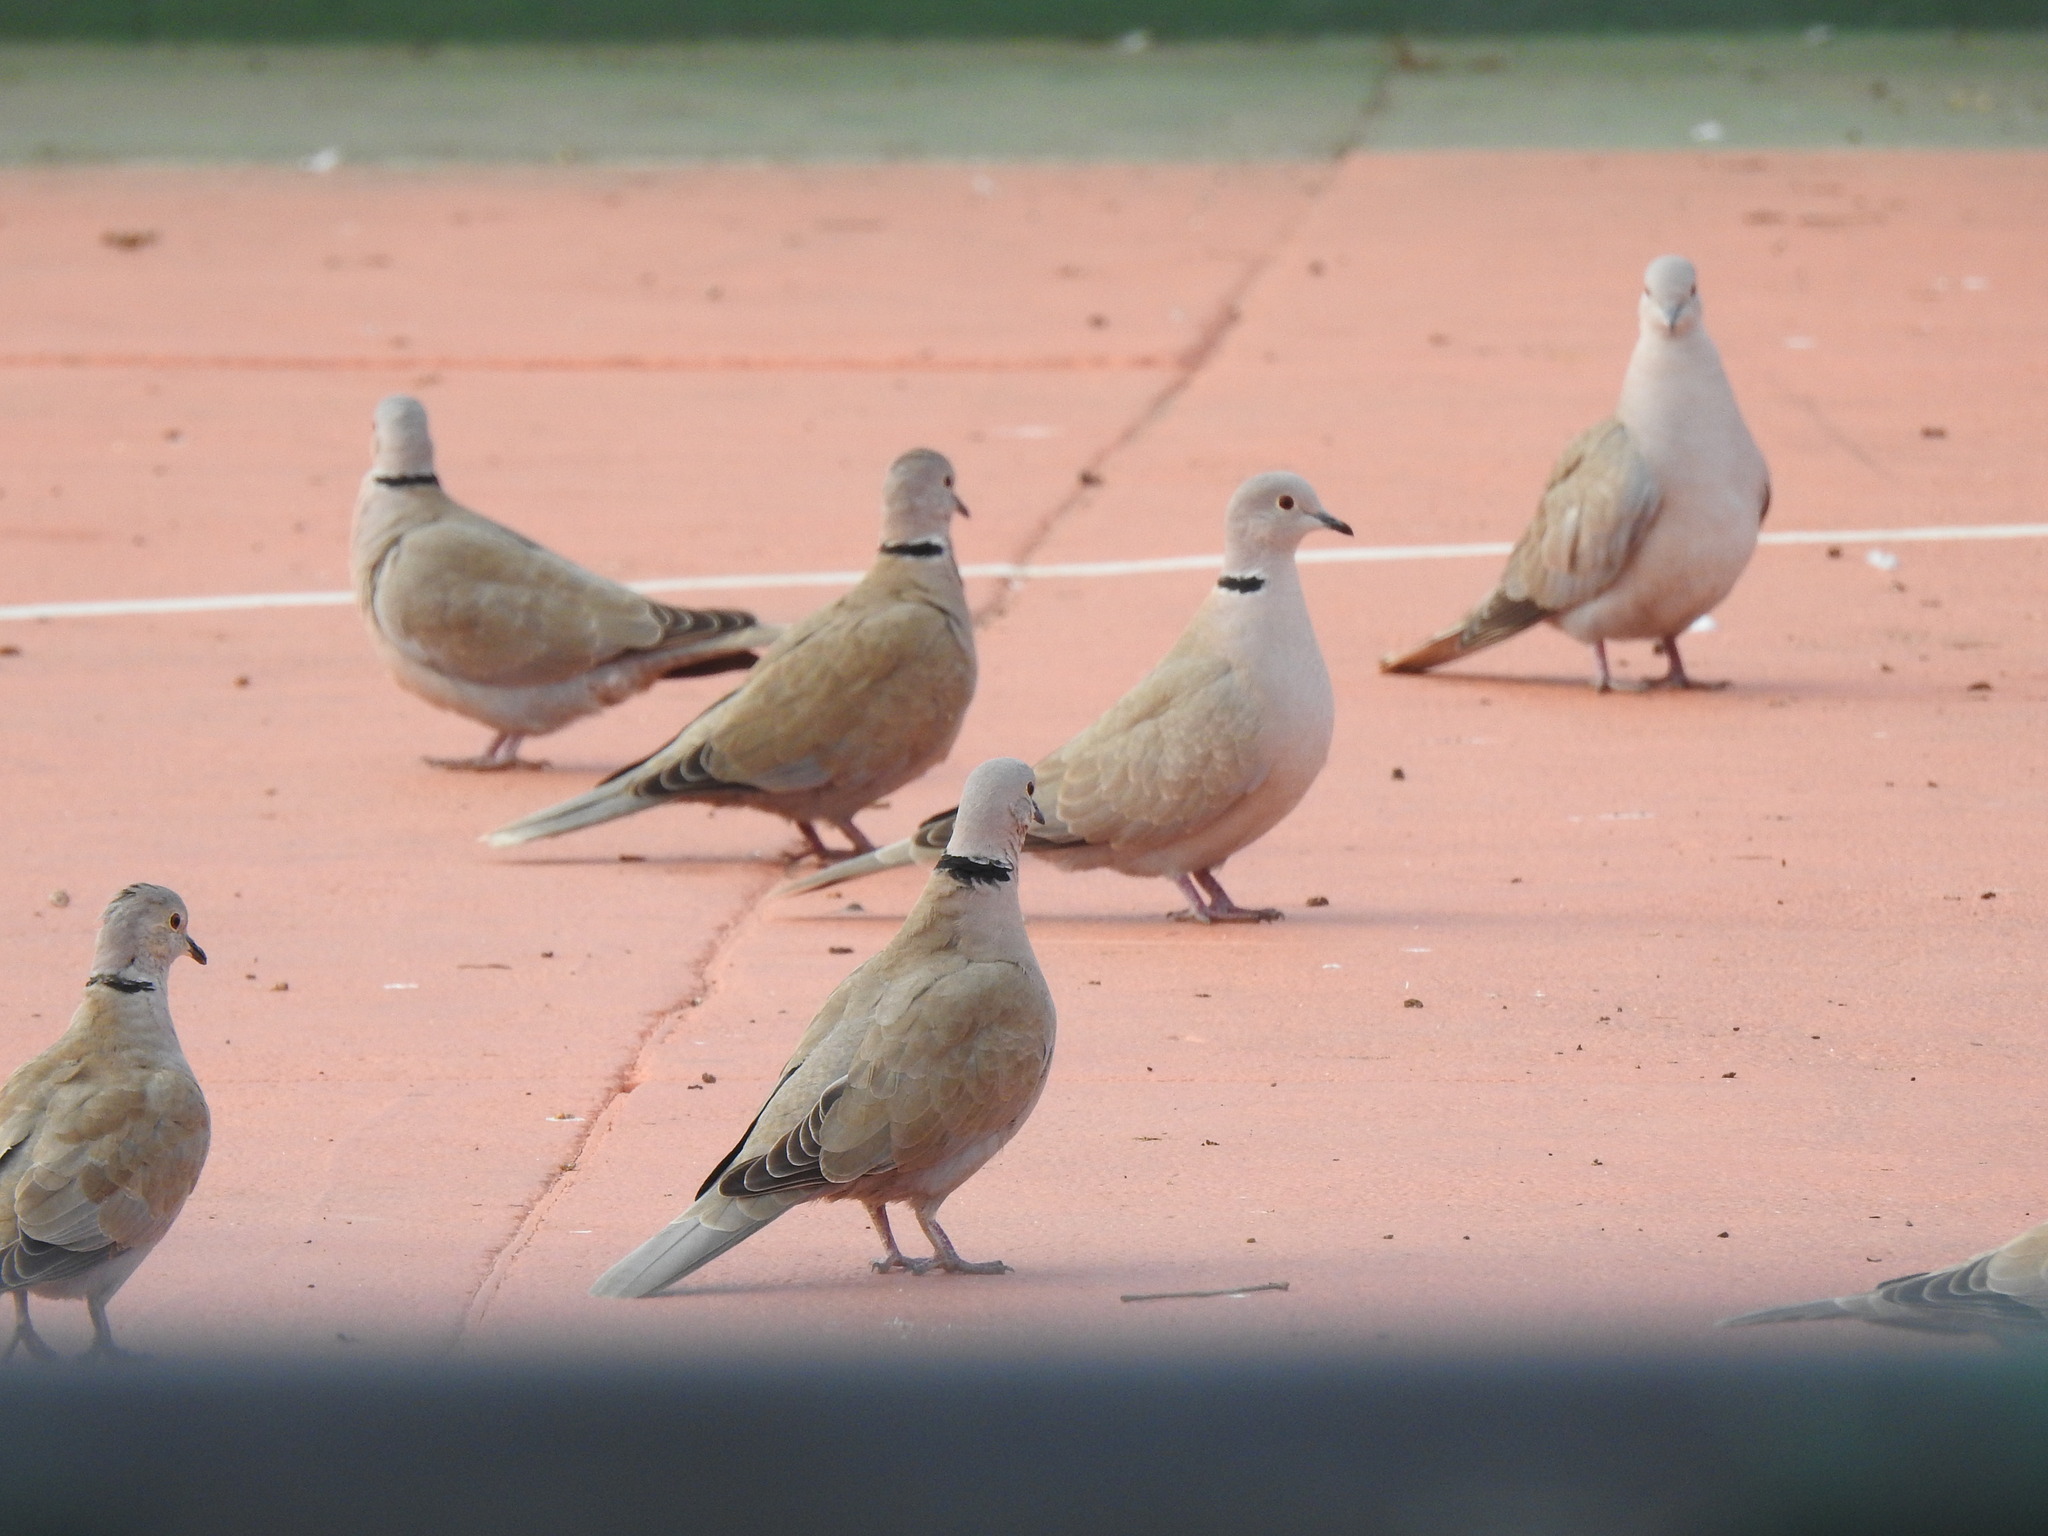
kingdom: Animalia
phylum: Chordata
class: Aves
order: Columbiformes
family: Columbidae
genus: Streptopelia
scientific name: Streptopelia decaocto
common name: Eurasian collared dove
